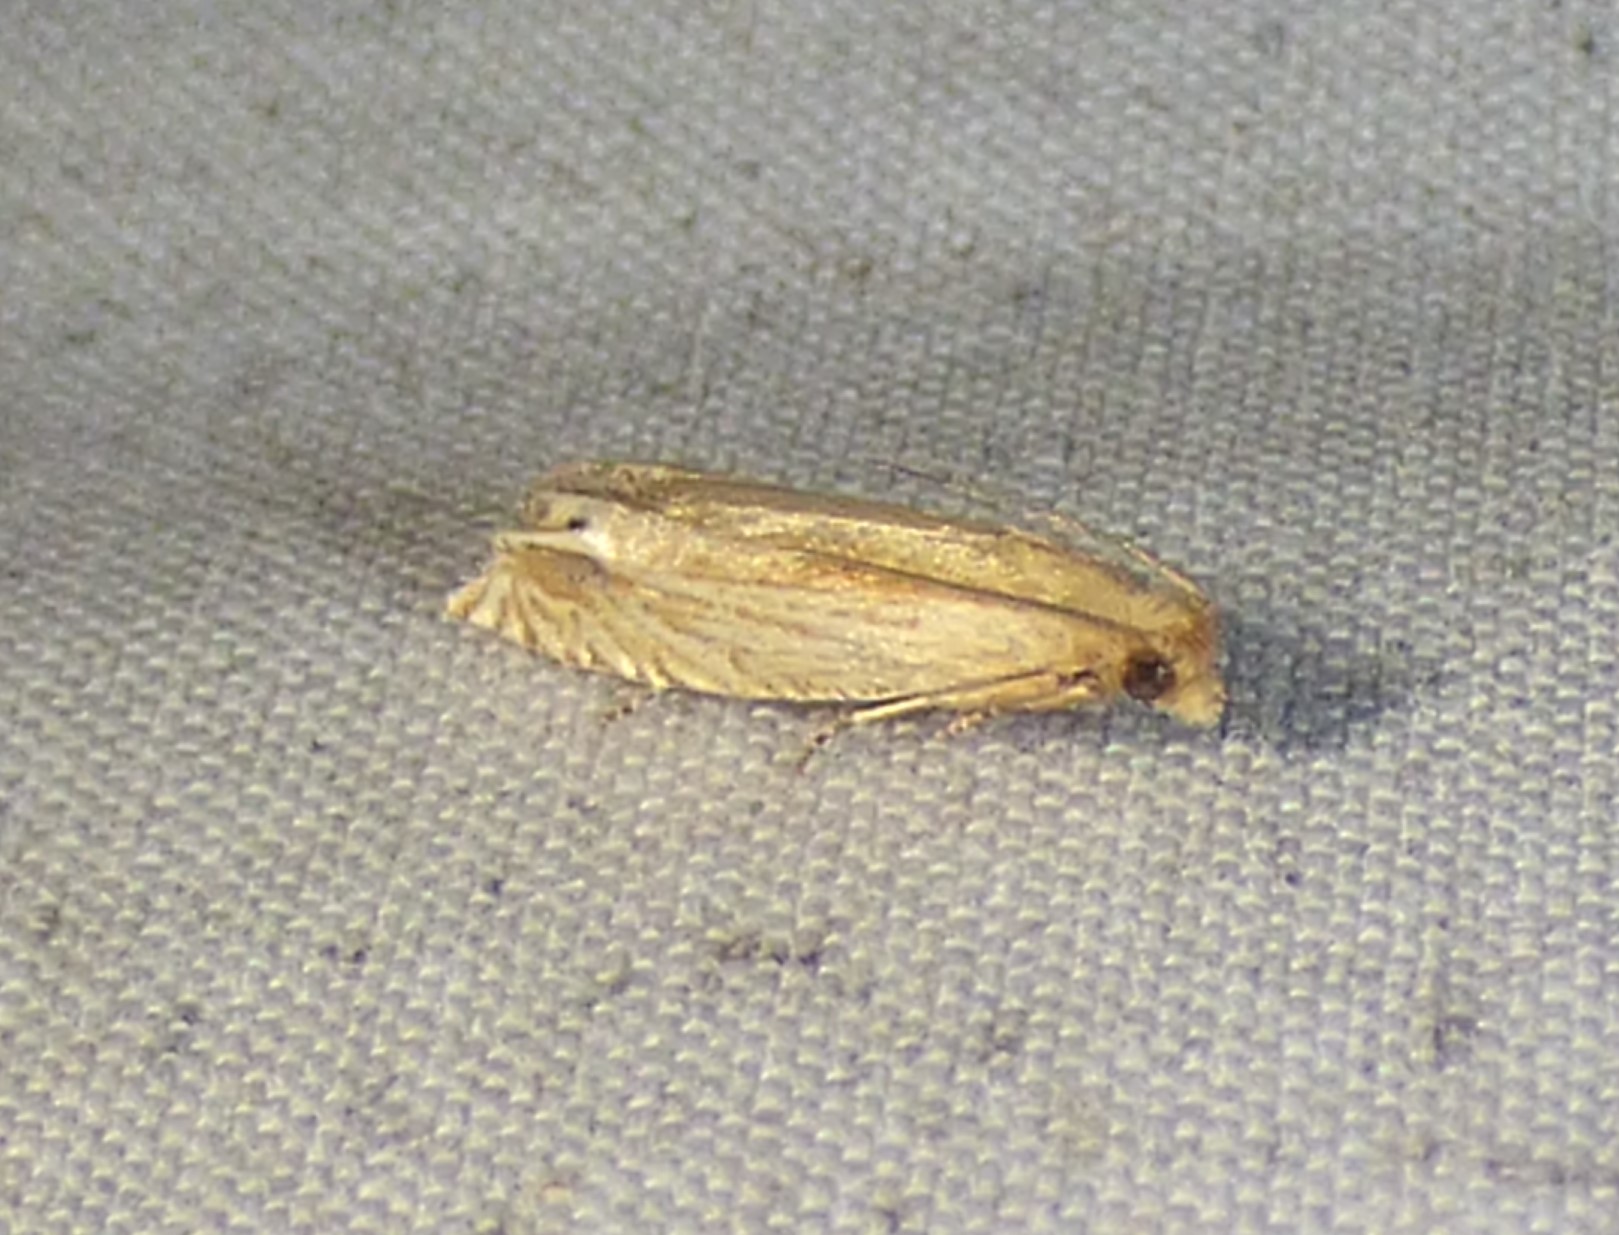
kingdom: Animalia
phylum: Arthropoda
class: Insecta
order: Lepidoptera
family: Tortricidae
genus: Pelochrista
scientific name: Pelochrista cataclystiana
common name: Goldenrod pelochrista moth
